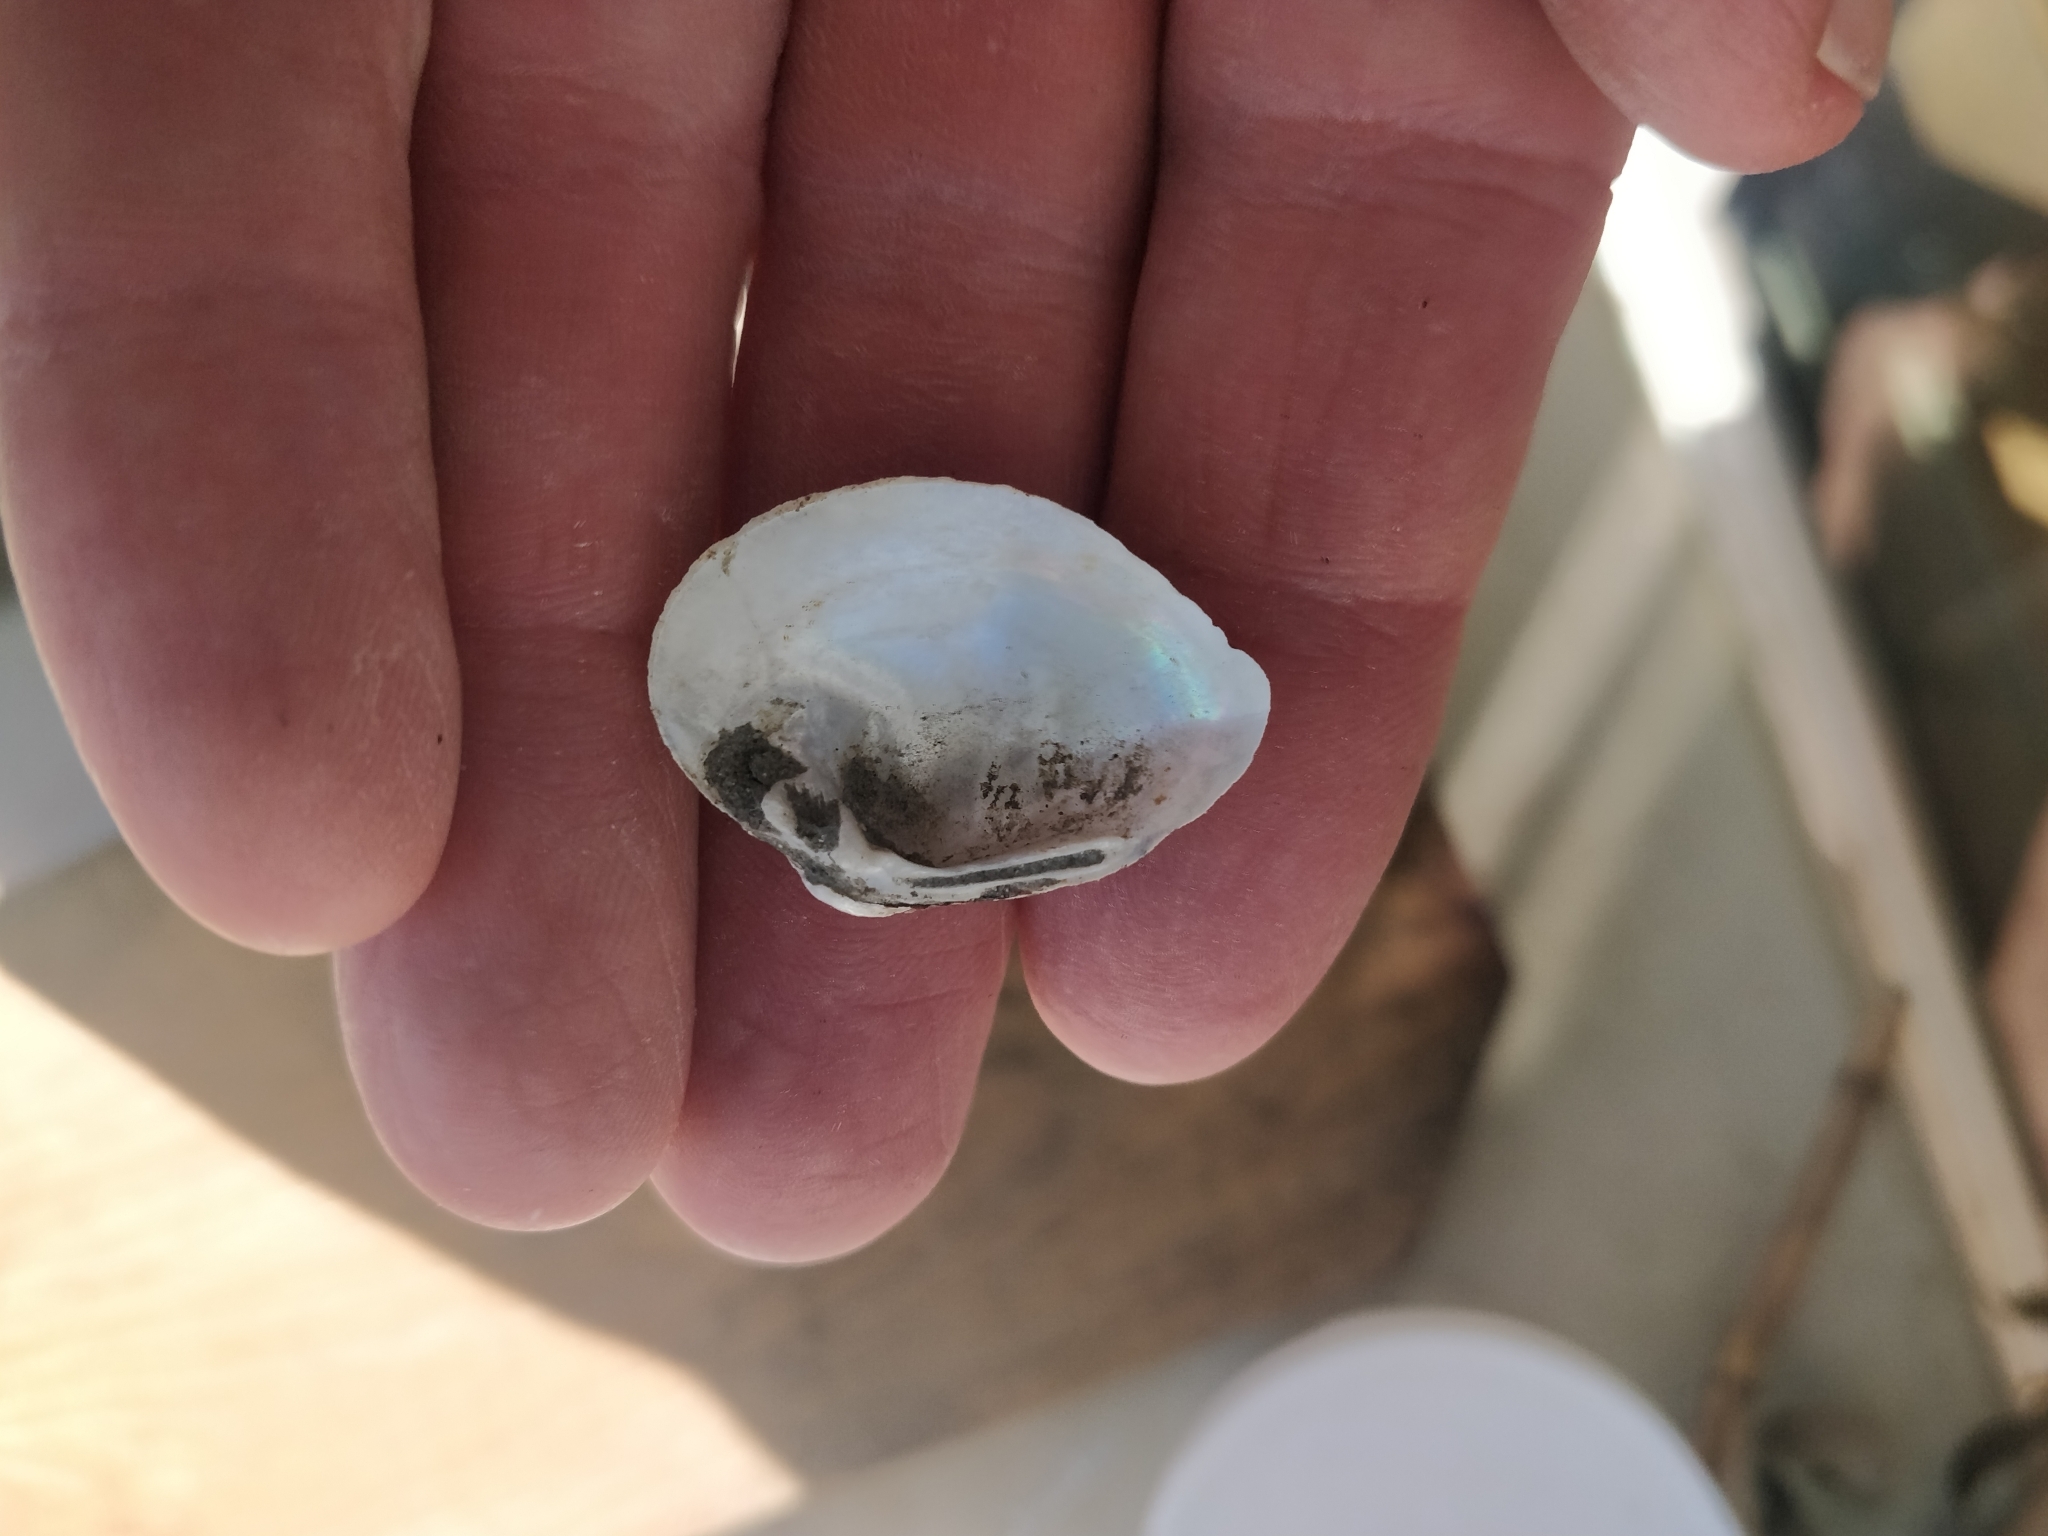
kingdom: Animalia
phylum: Mollusca
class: Bivalvia
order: Unionida
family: Unionidae
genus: Truncilla
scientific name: Truncilla truncata
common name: Deertoe
